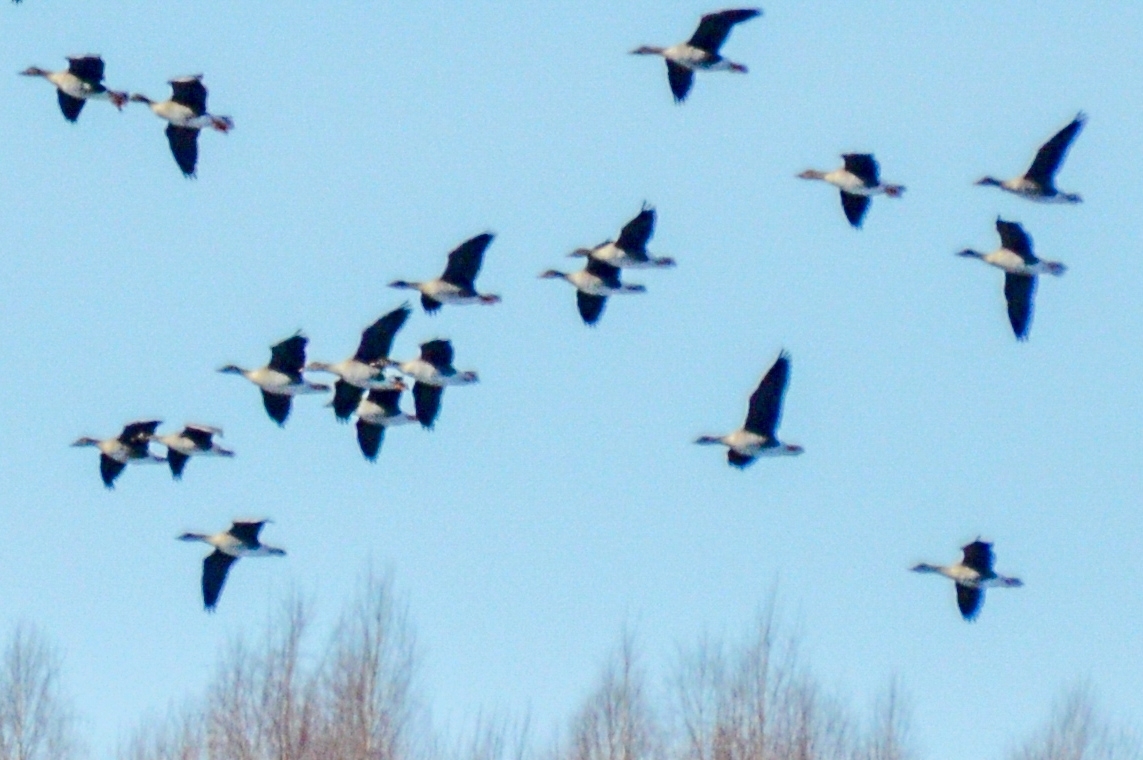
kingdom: Animalia
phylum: Chordata
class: Aves
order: Anseriformes
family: Anatidae
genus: Anser
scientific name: Anser serrirostris
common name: Tundra bean goose
